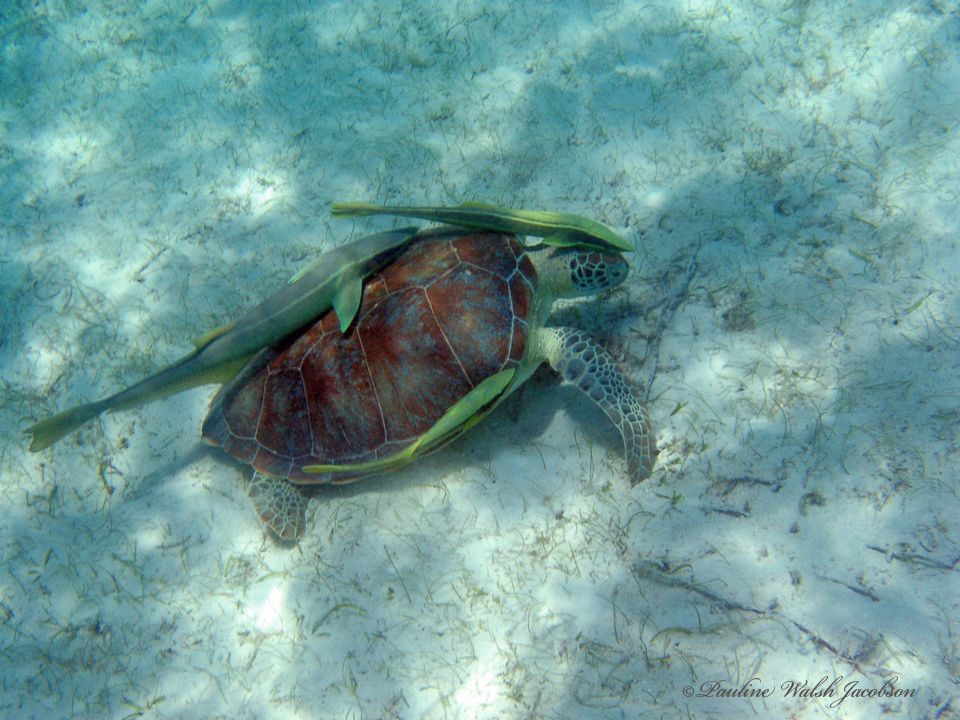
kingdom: Animalia
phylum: Chordata
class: Testudines
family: Cheloniidae
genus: Chelonia
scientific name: Chelonia mydas
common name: Green turtle
